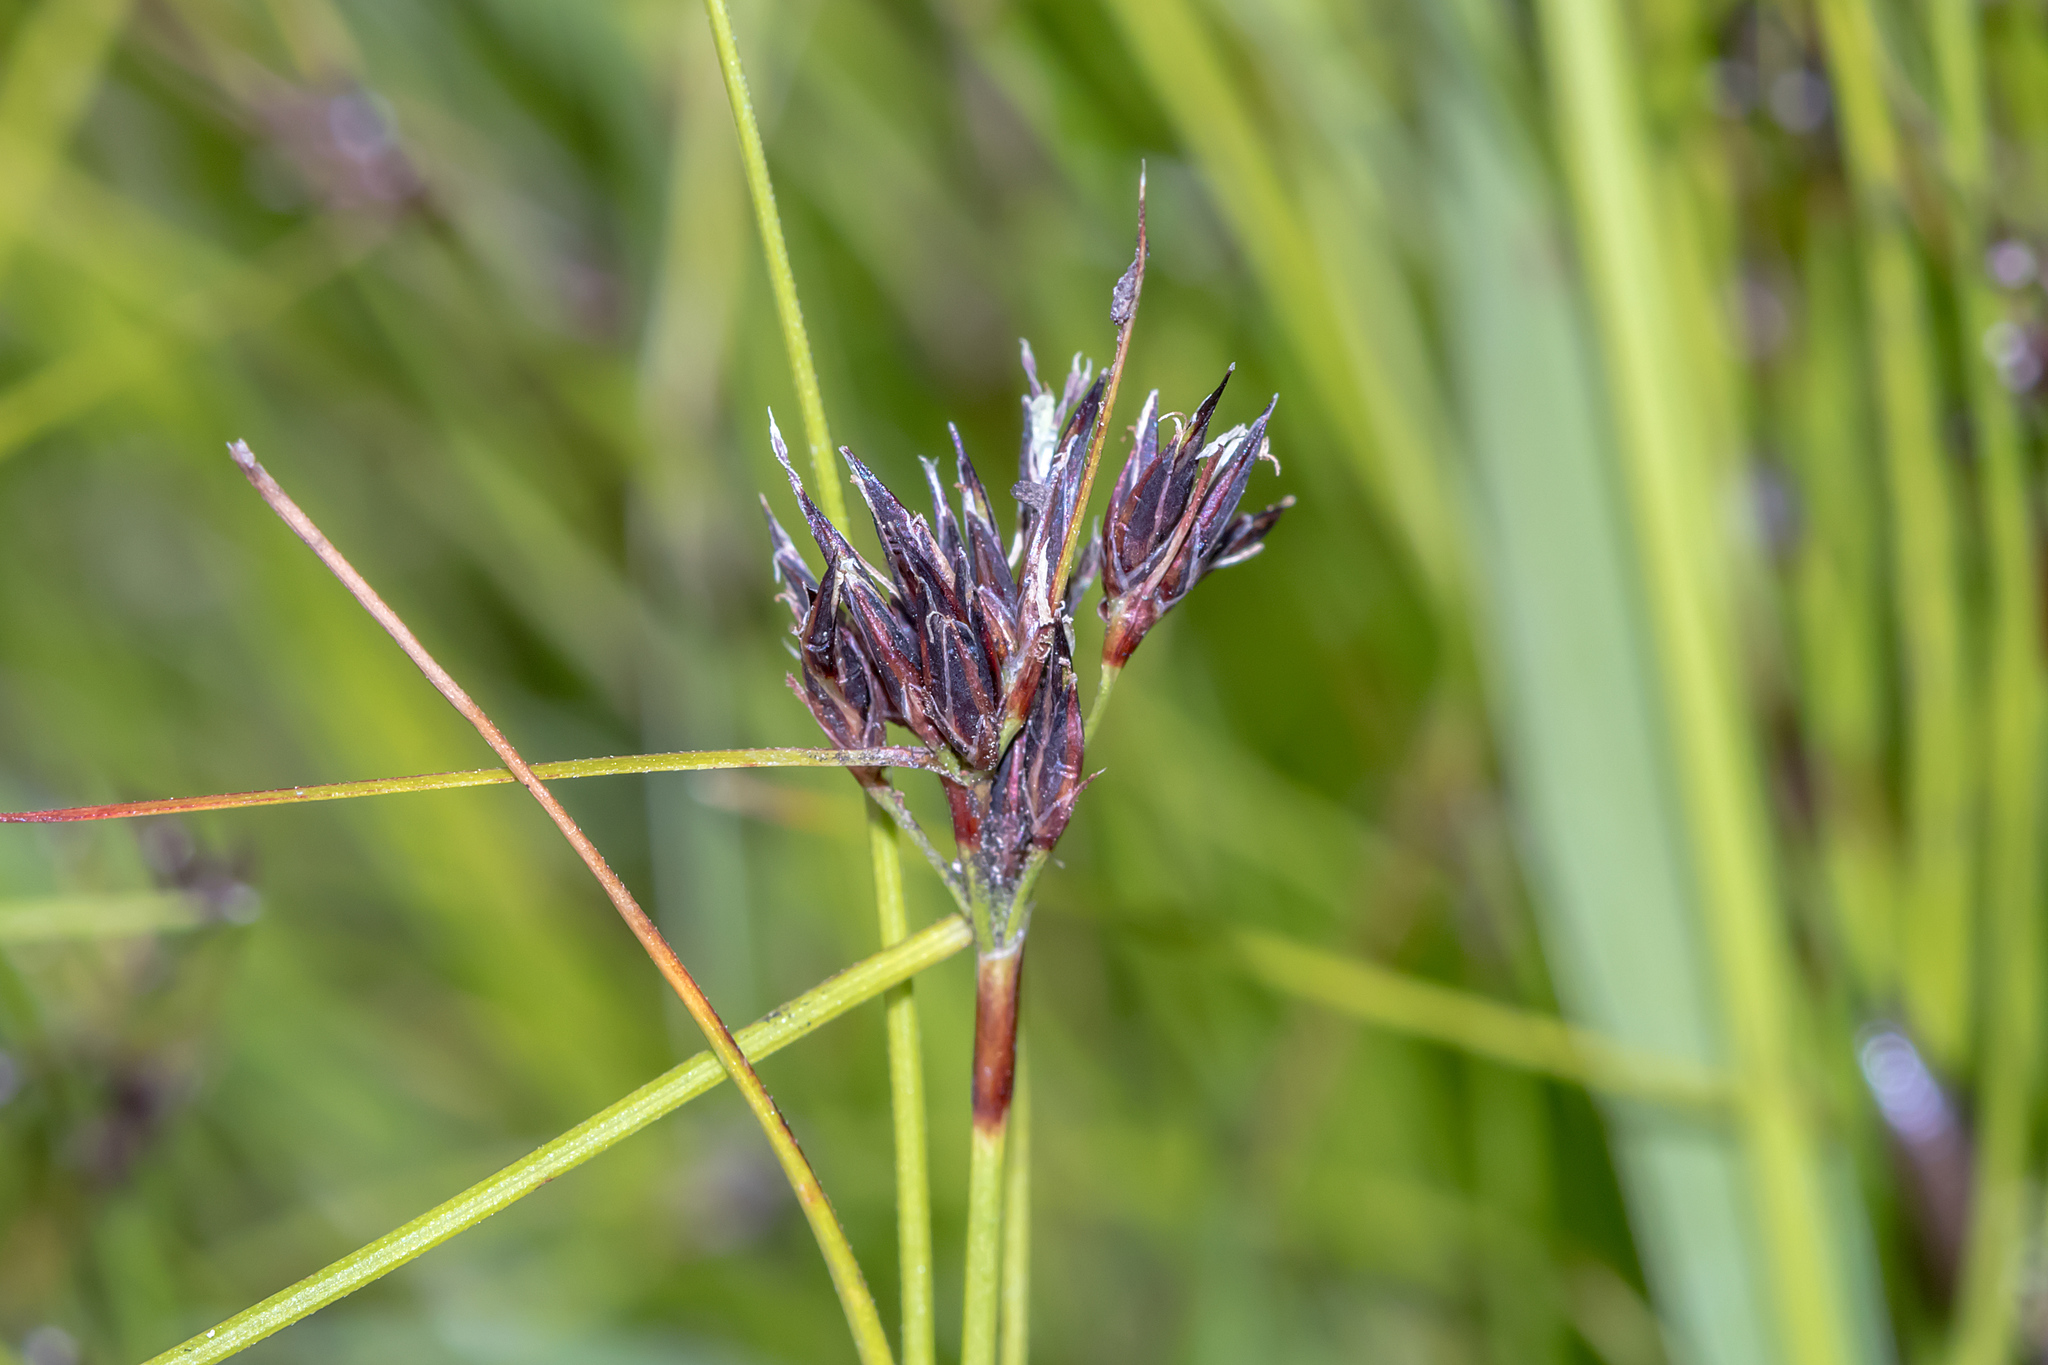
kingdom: Plantae
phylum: Tracheophyta
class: Liliopsida
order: Poales
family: Cyperaceae
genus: Schoenus
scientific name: Schoenus apogon
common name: Smooth bogrush
